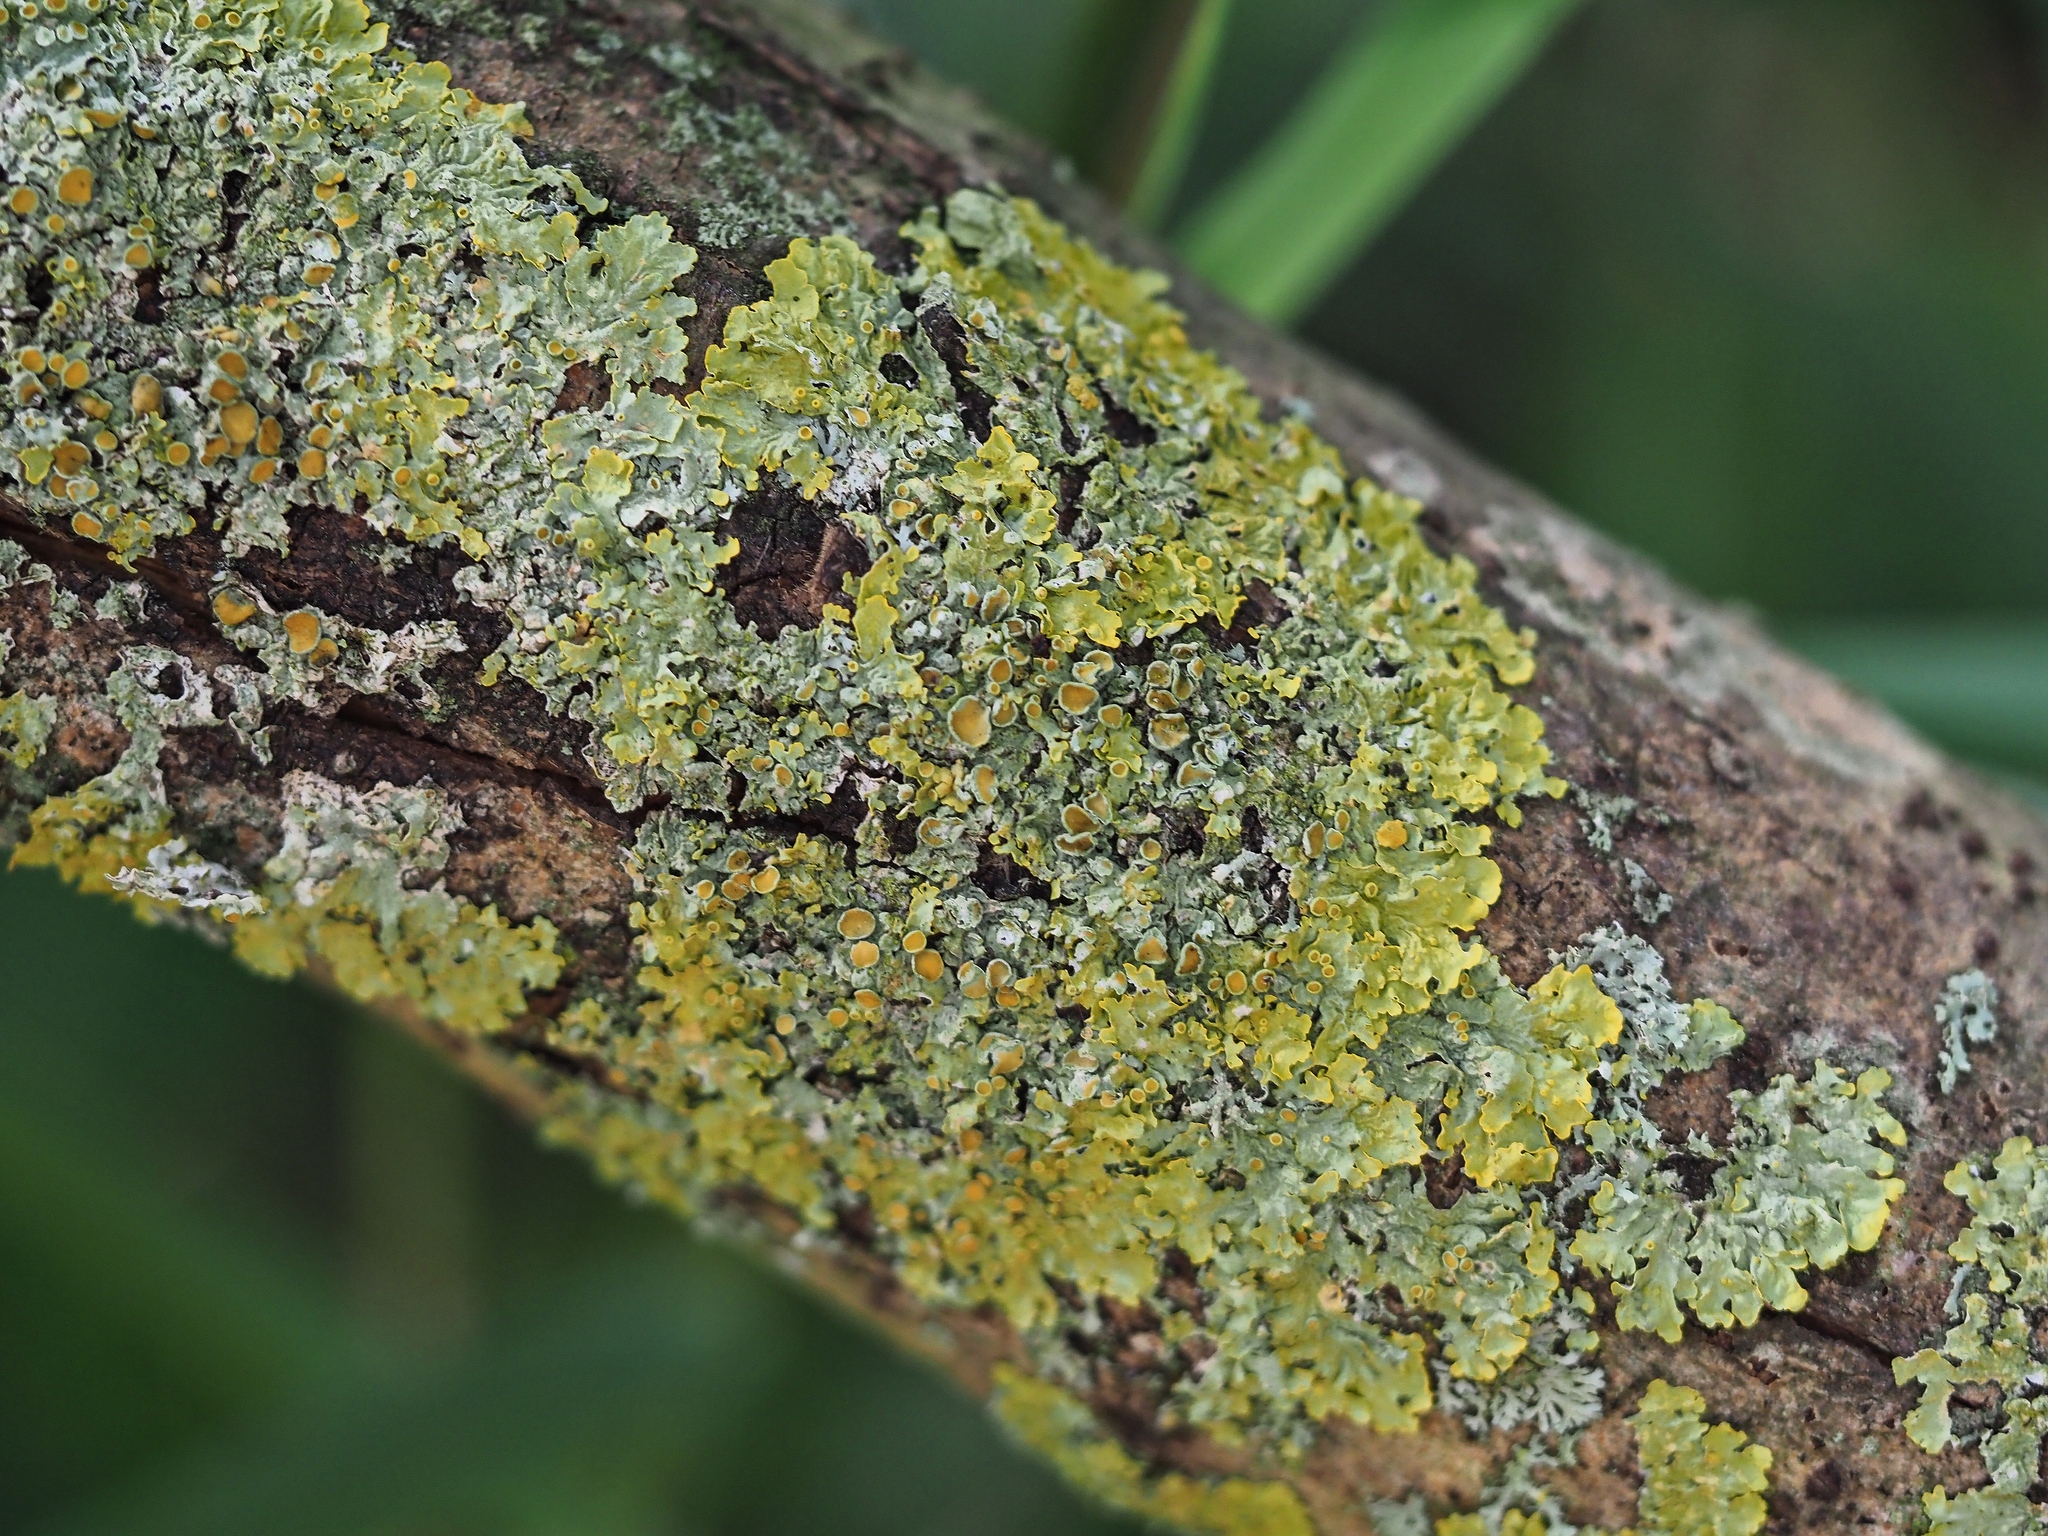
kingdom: Fungi
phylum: Ascomycota
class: Lecanoromycetes
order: Teloschistales
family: Teloschistaceae
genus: Xanthoria
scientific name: Xanthoria parietina
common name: Common orange lichen
